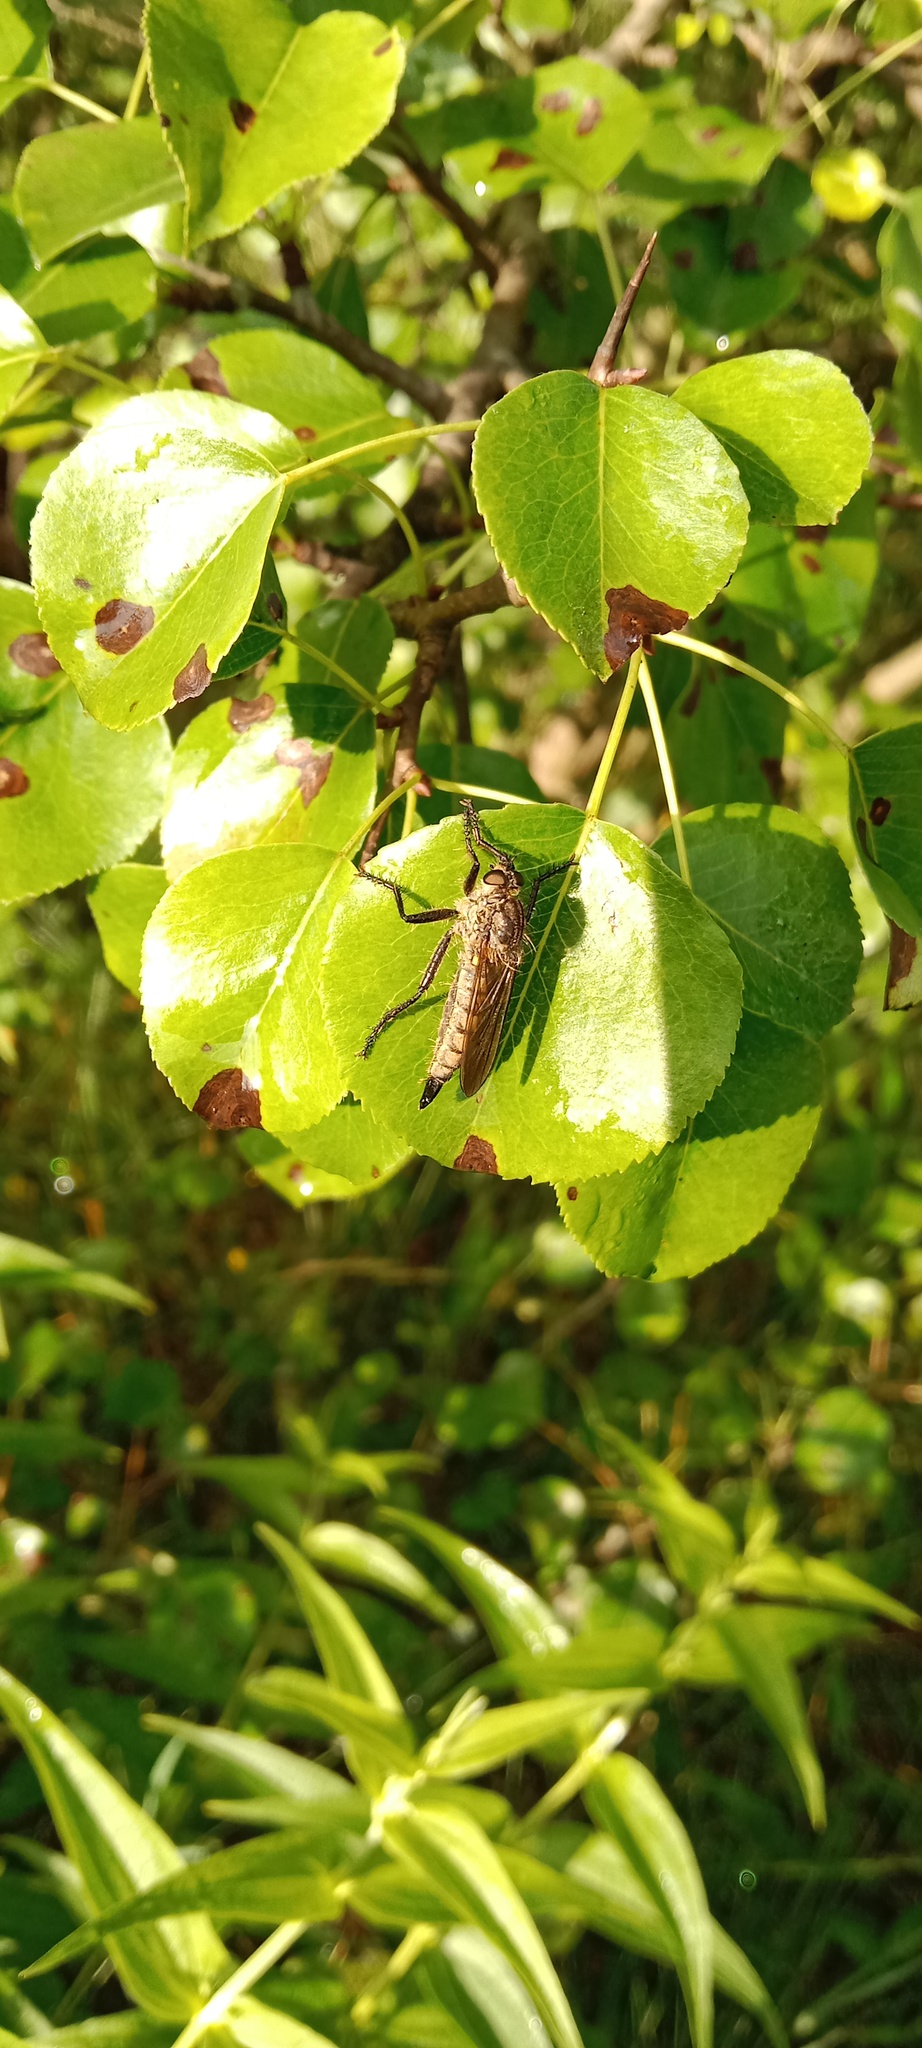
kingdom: Plantae
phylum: Tracheophyta
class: Magnoliopsida
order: Rosales
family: Rosaceae
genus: Pyrus
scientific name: Pyrus communis
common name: Pear
